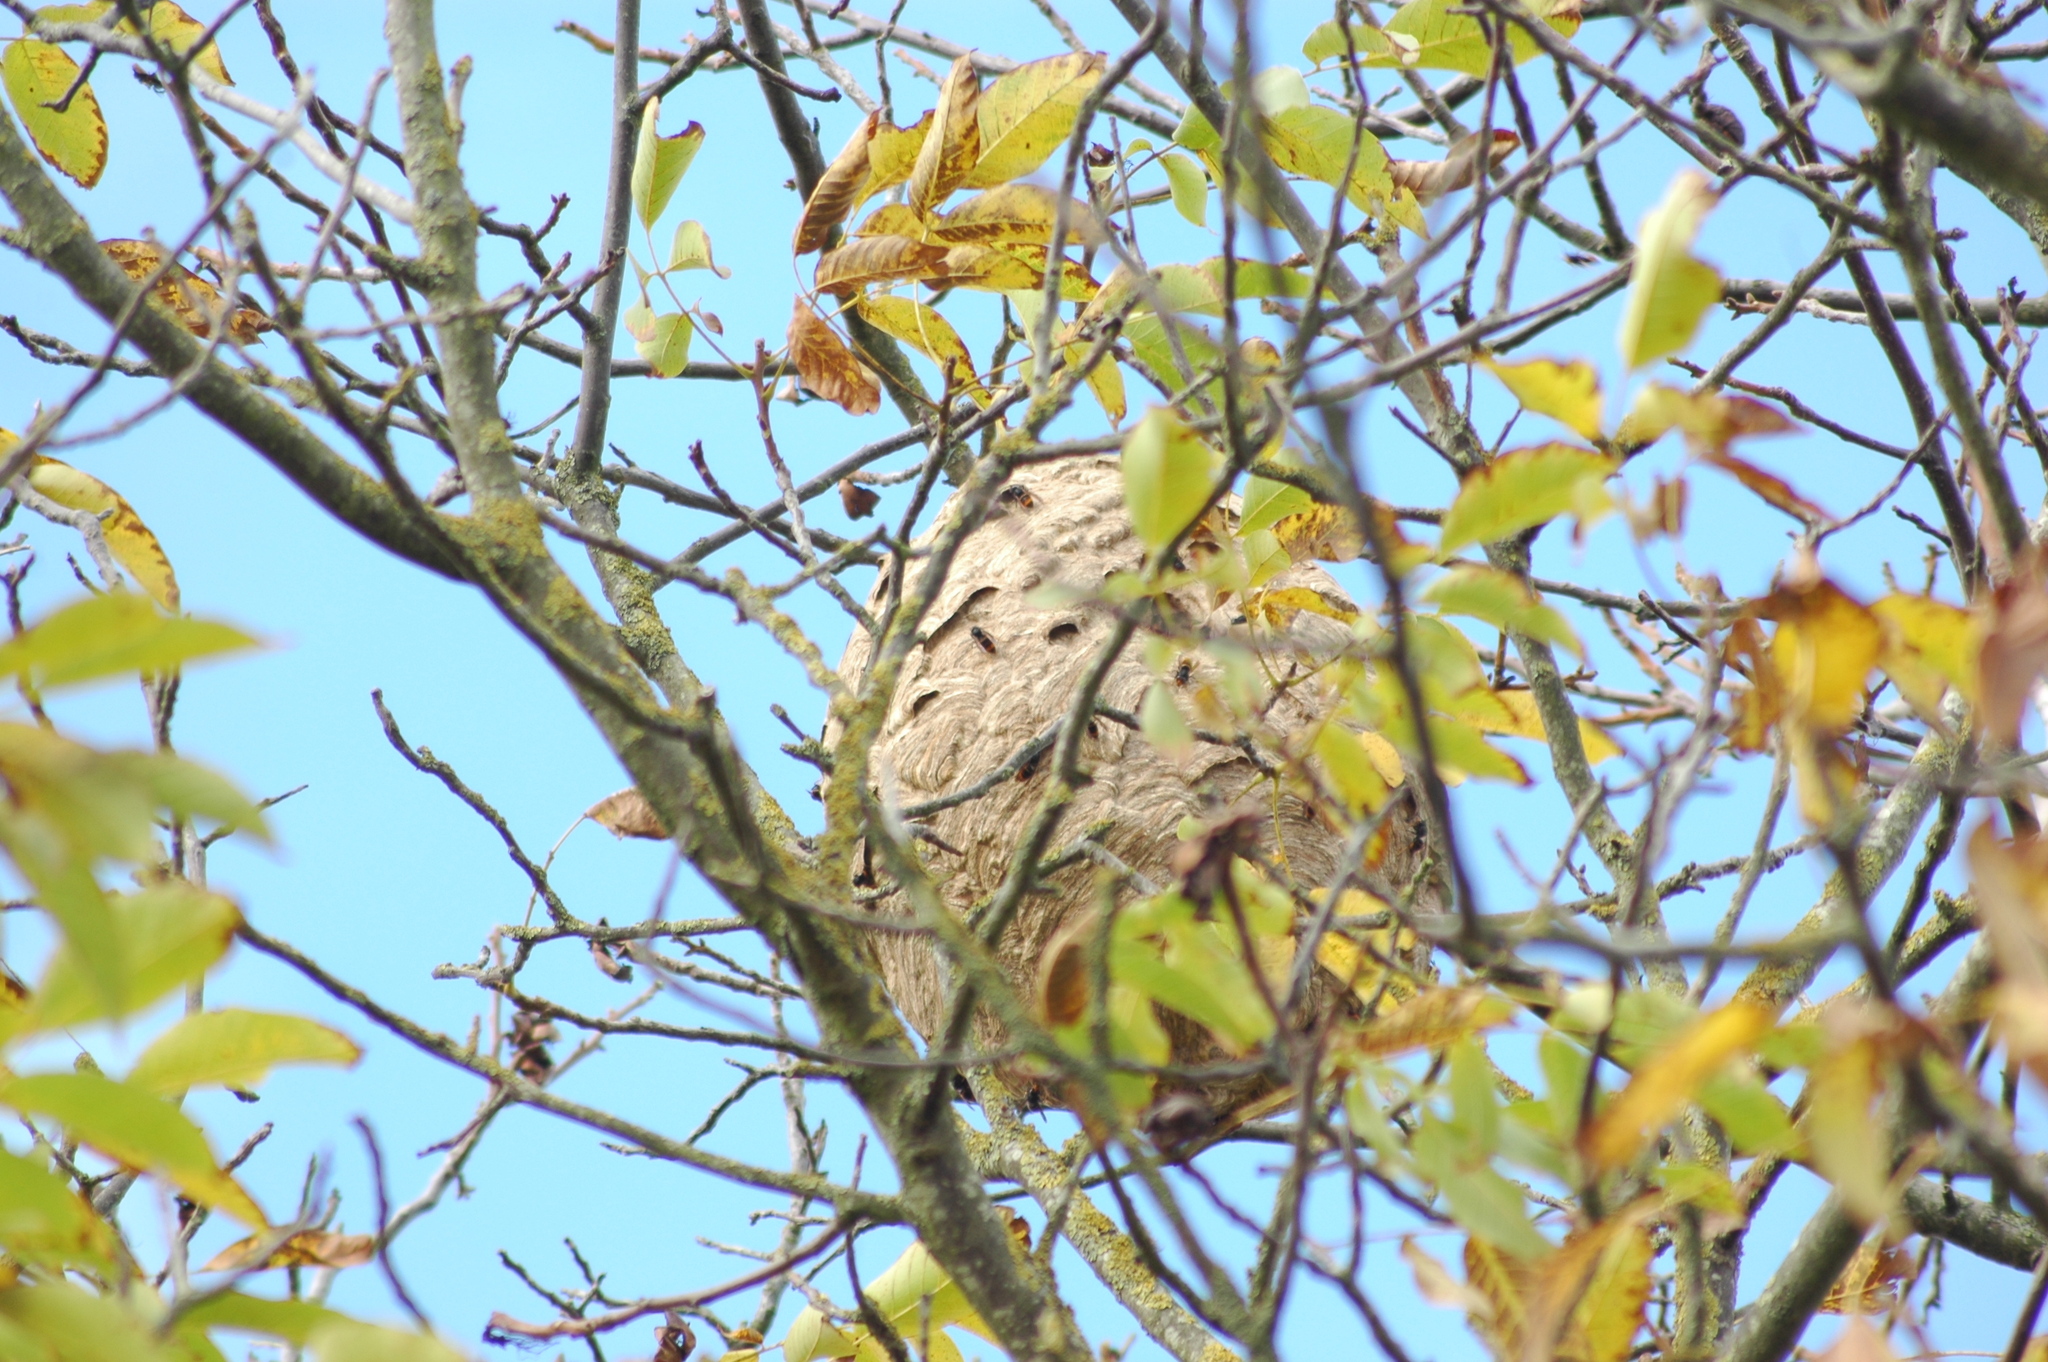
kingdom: Animalia
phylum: Arthropoda
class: Insecta
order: Hymenoptera
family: Vespidae
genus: Vespa
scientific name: Vespa velutina
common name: Asian hornet
